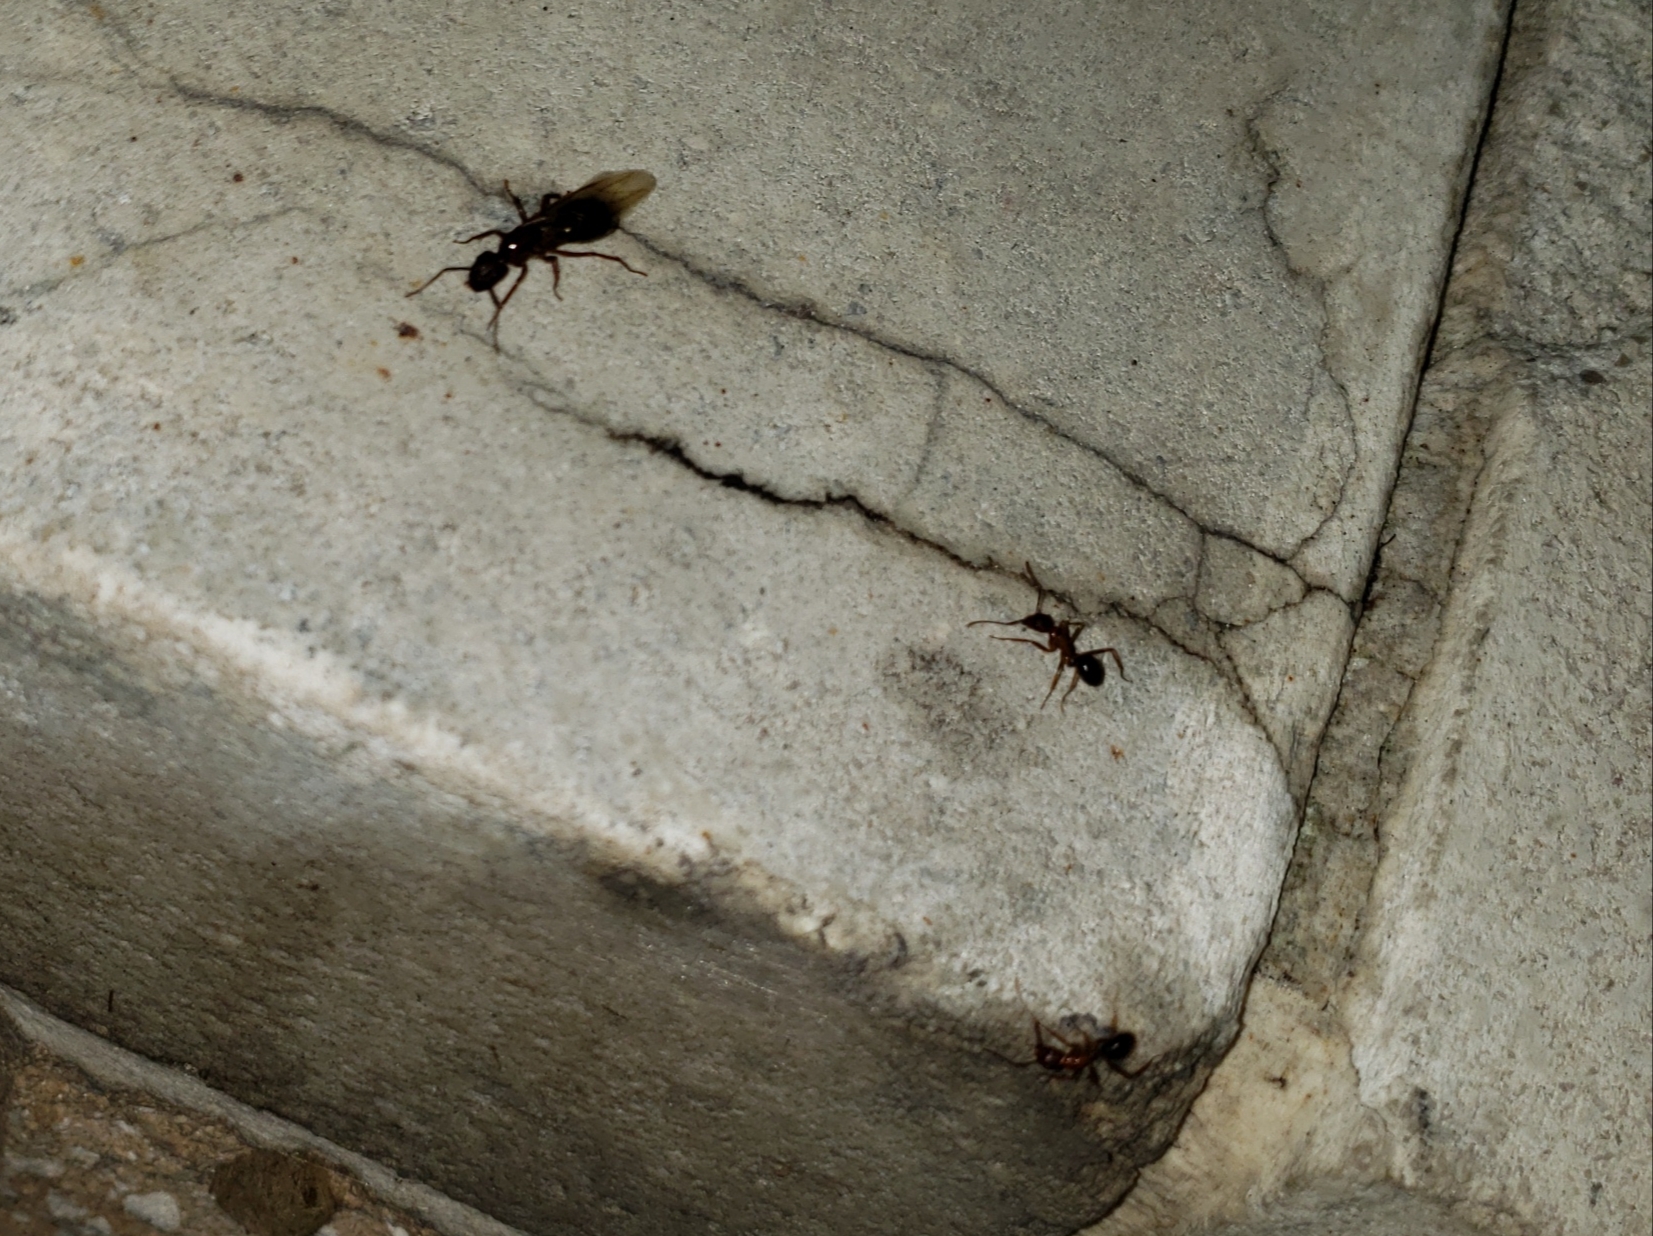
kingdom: Animalia
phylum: Arthropoda
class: Insecta
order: Hymenoptera
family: Formicidae
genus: Camponotus
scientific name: Camponotus floridanus
